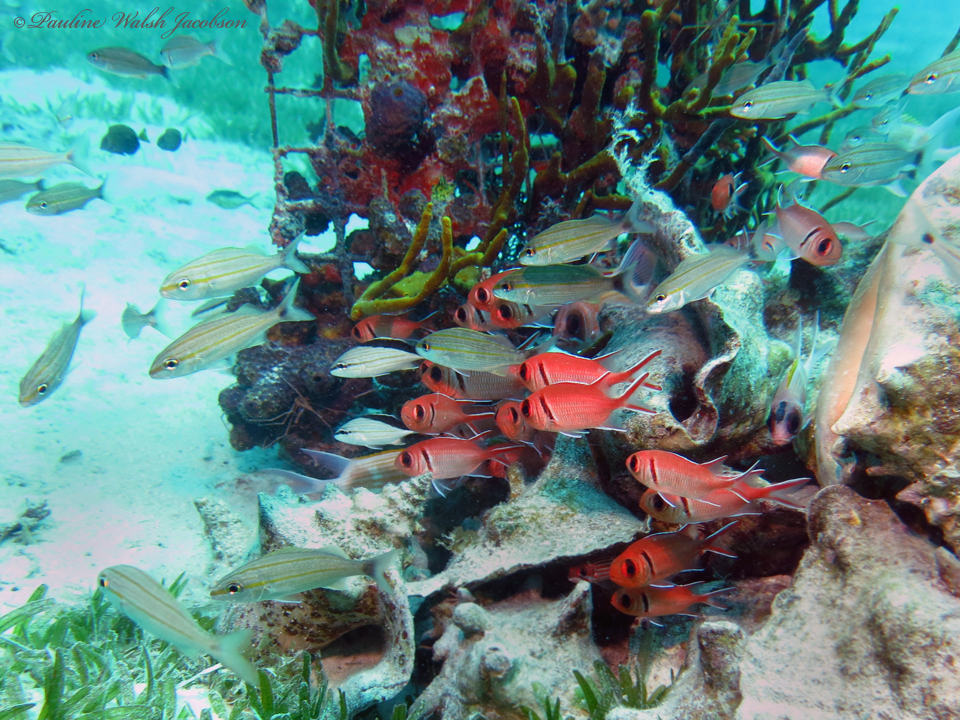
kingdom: Animalia
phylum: Chordata
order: Beryciformes
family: Holocentridae
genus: Myripristis
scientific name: Myripristis jacobus
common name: Blackbar soldierfish
